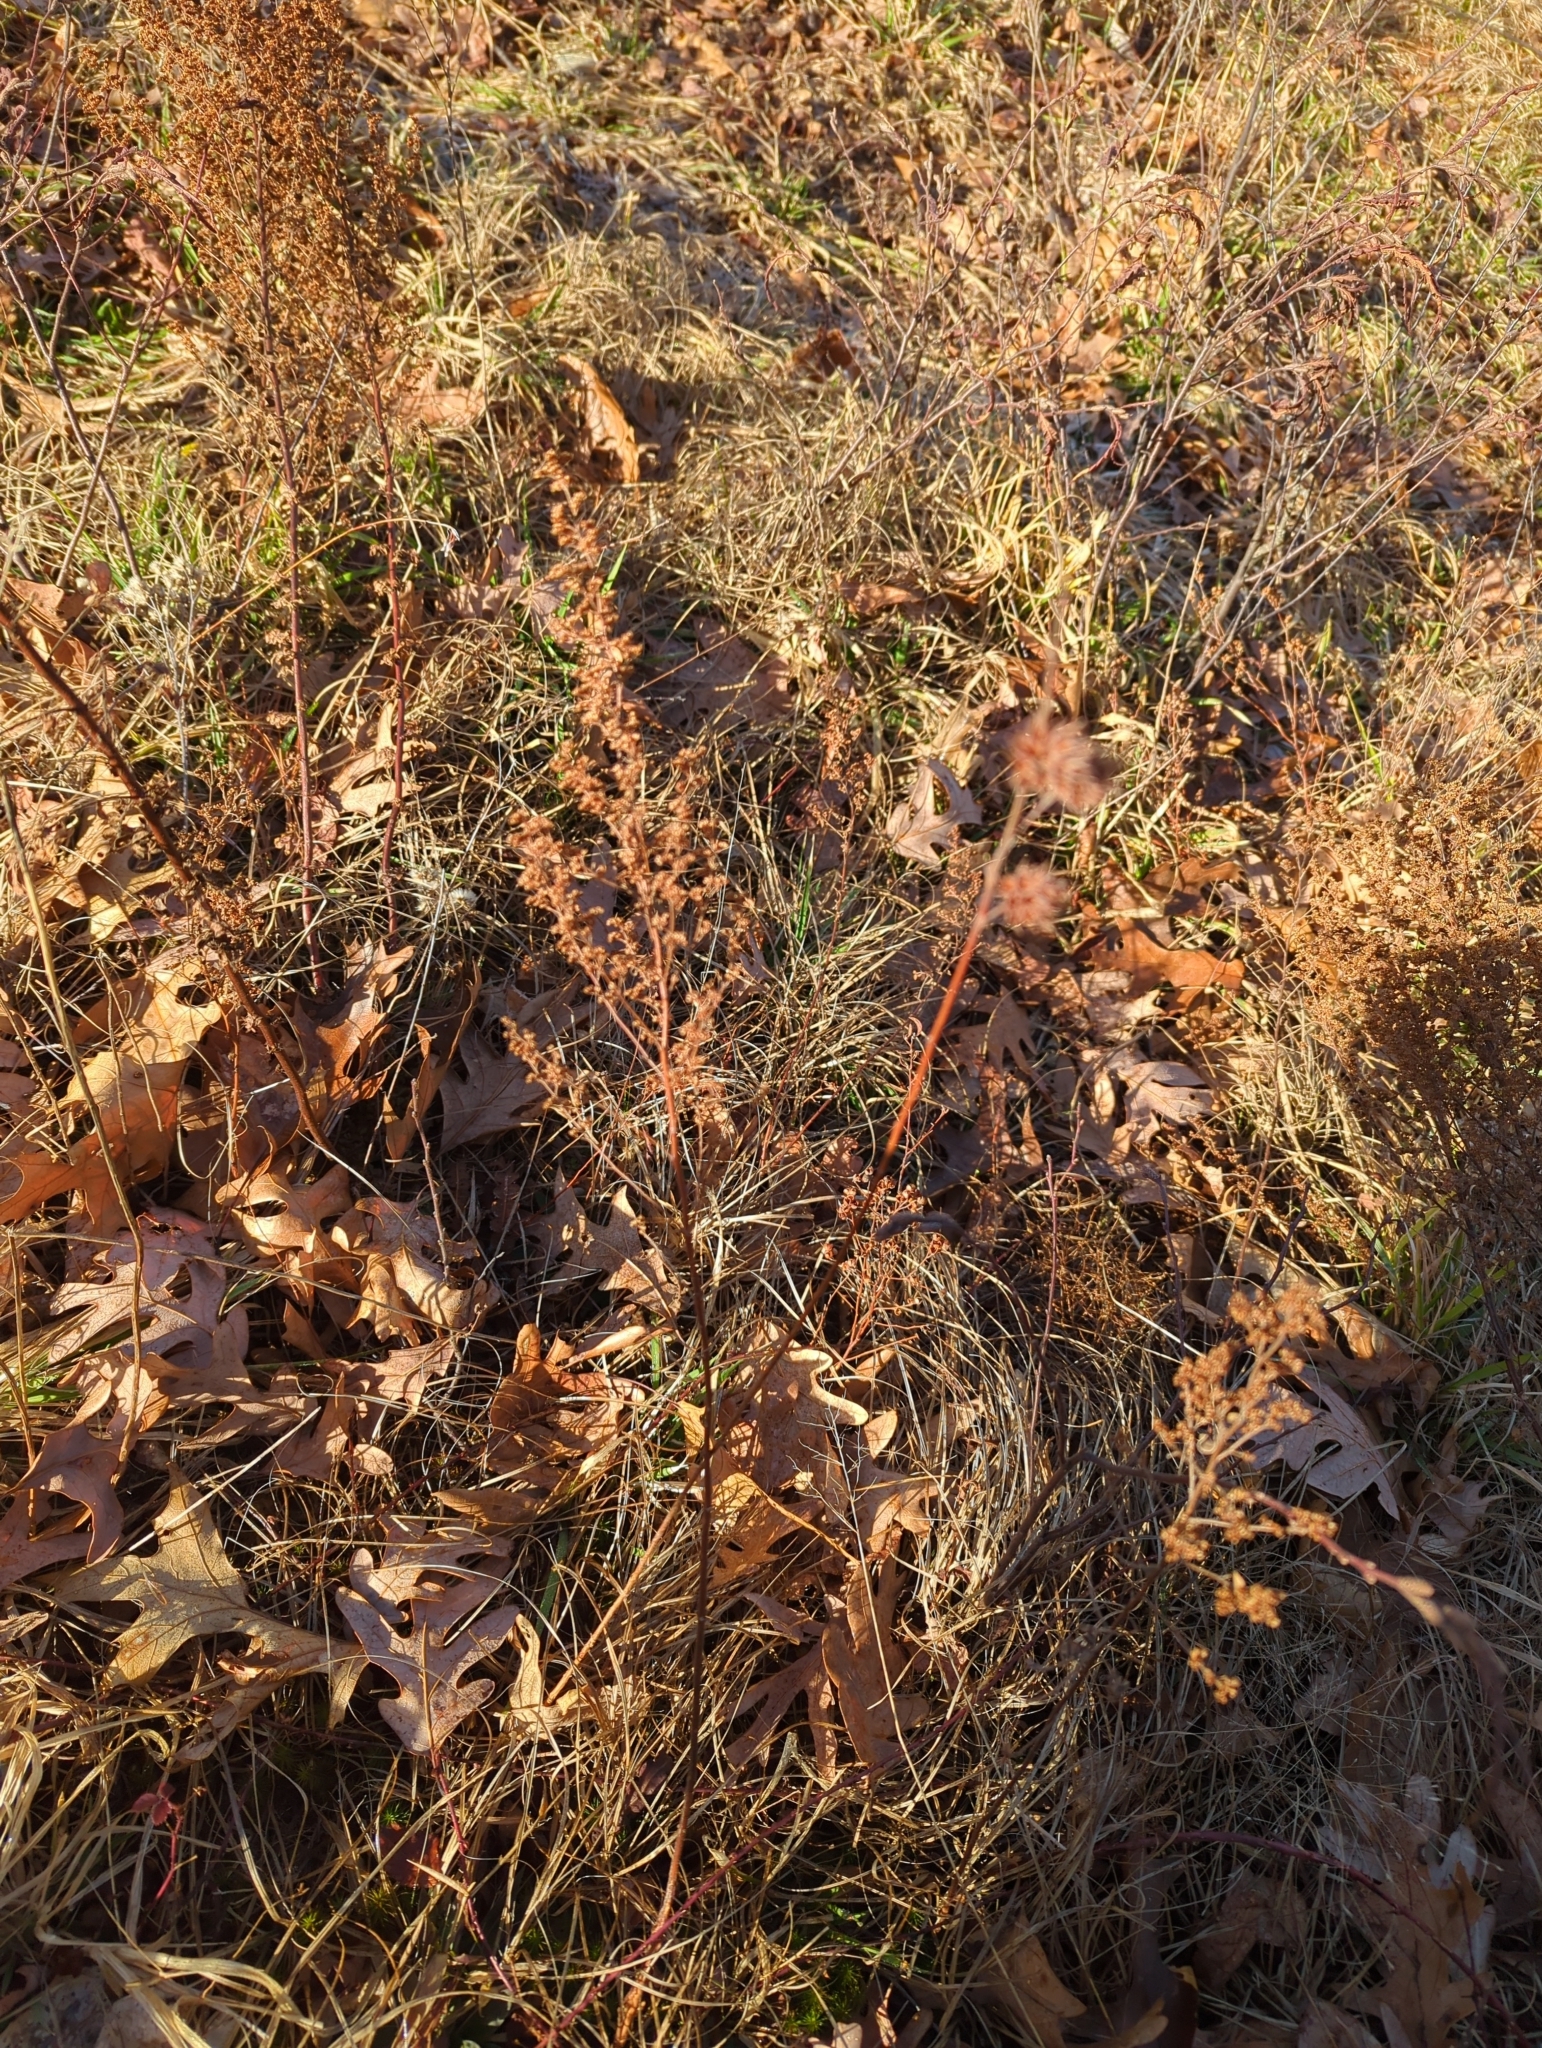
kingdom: Plantae
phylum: Tracheophyta
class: Magnoliopsida
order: Rosales
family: Rosaceae
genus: Spiraea
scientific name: Spiraea tomentosa
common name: Hardhack
